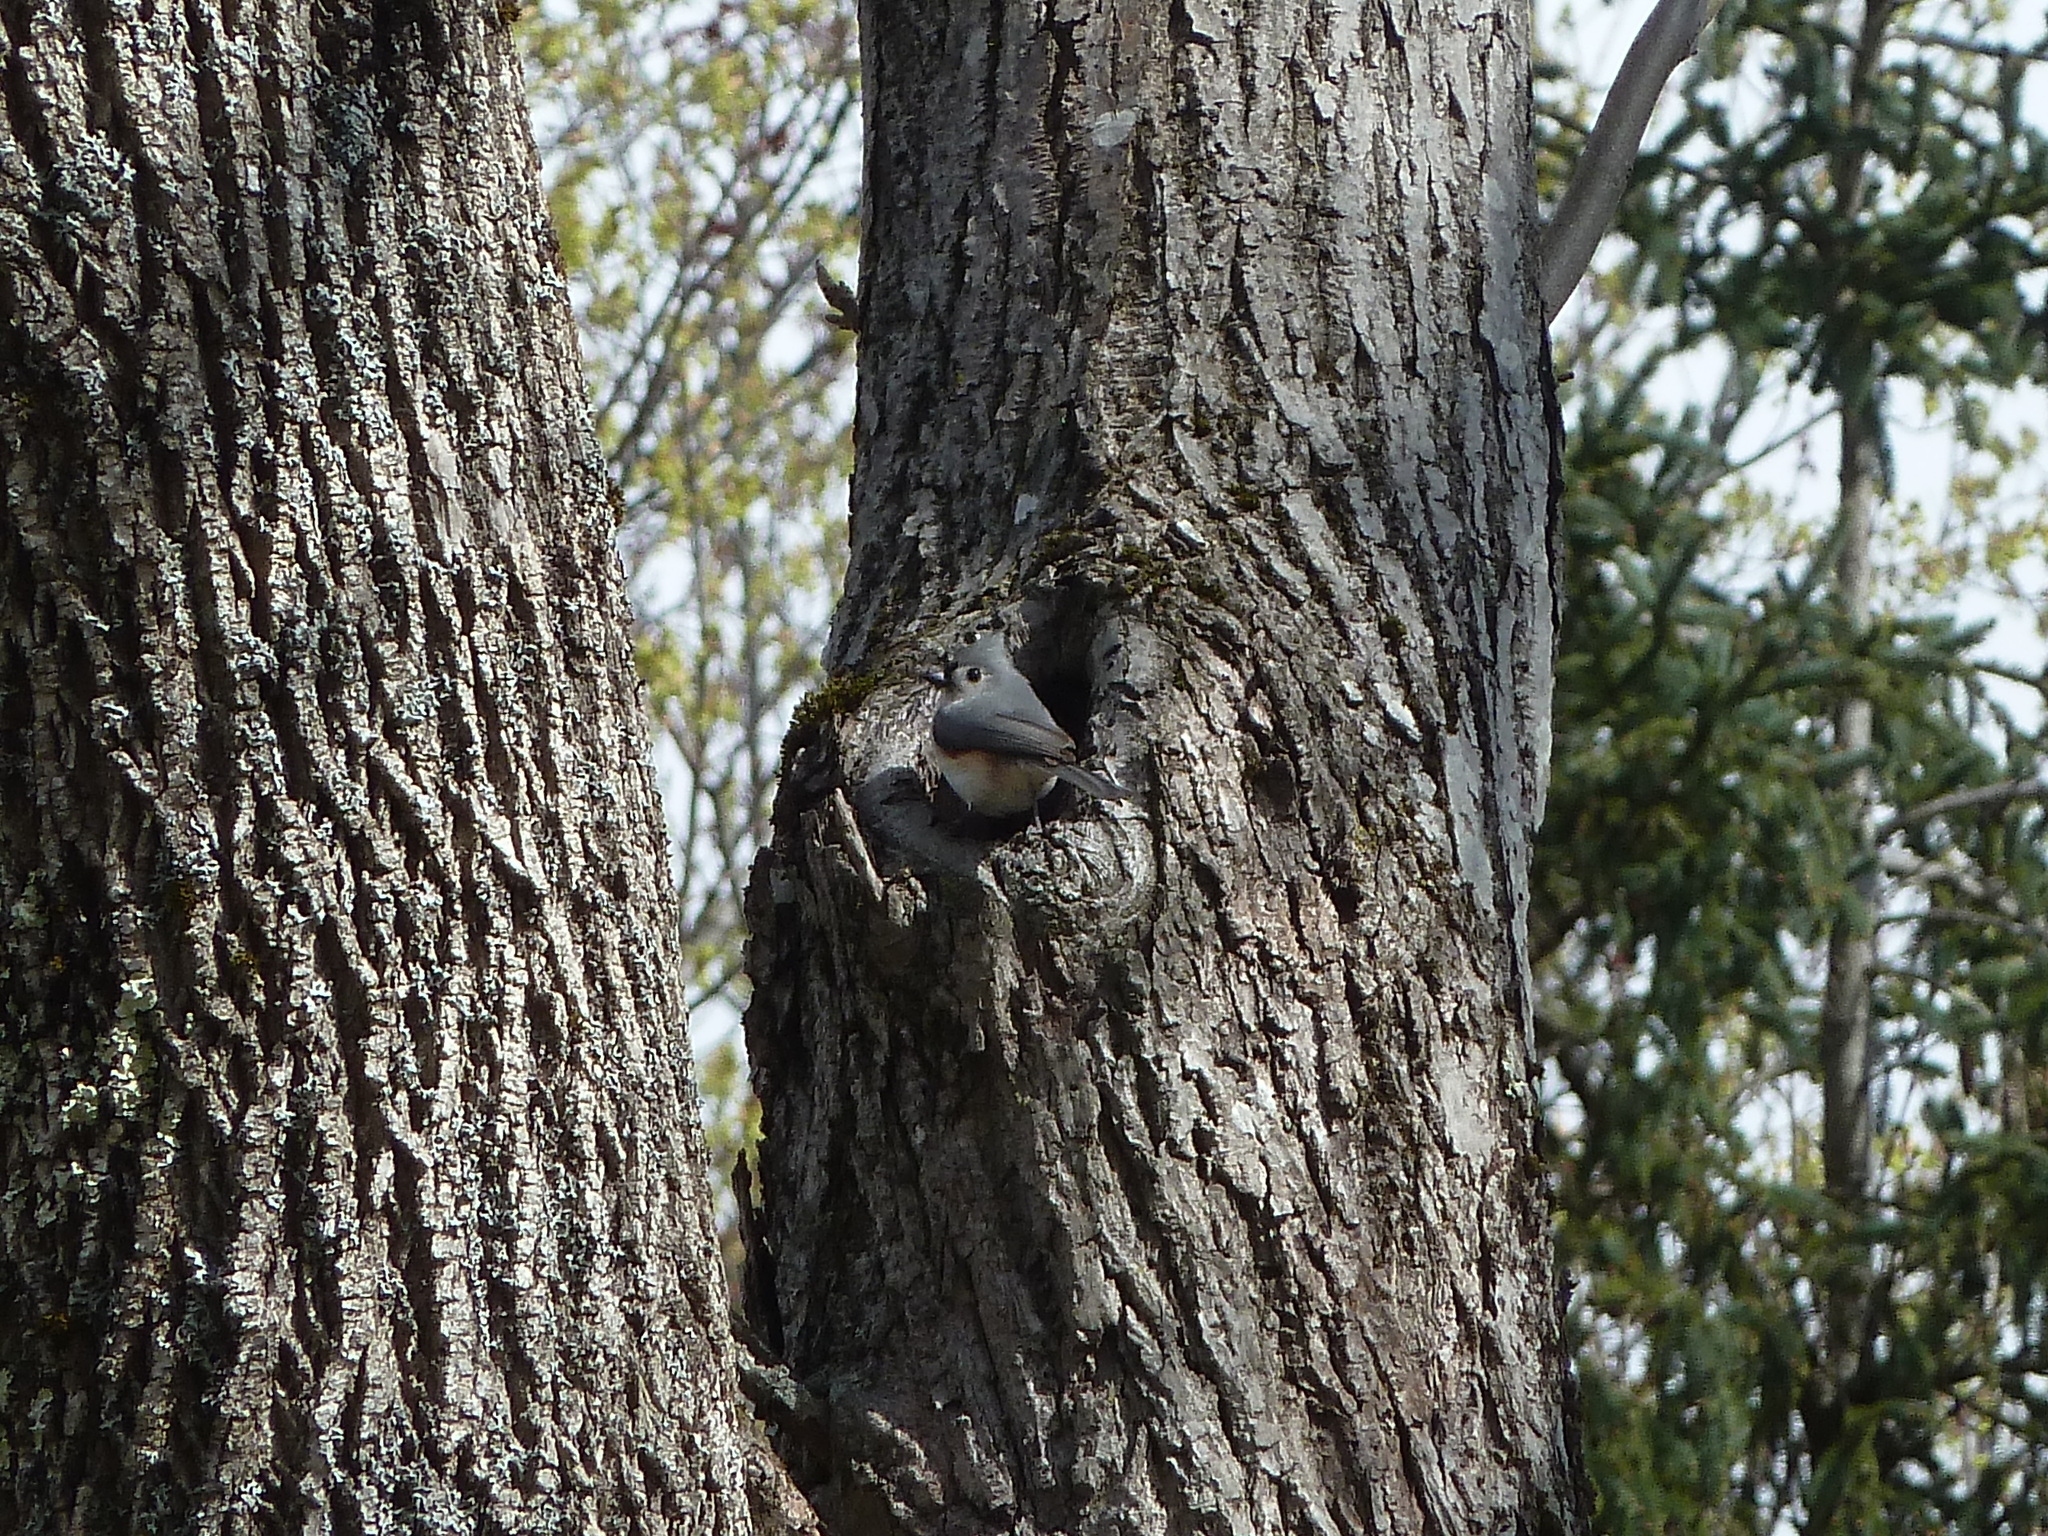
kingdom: Animalia
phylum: Chordata
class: Aves
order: Passeriformes
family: Paridae
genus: Baeolophus
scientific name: Baeolophus bicolor
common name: Tufted titmouse
